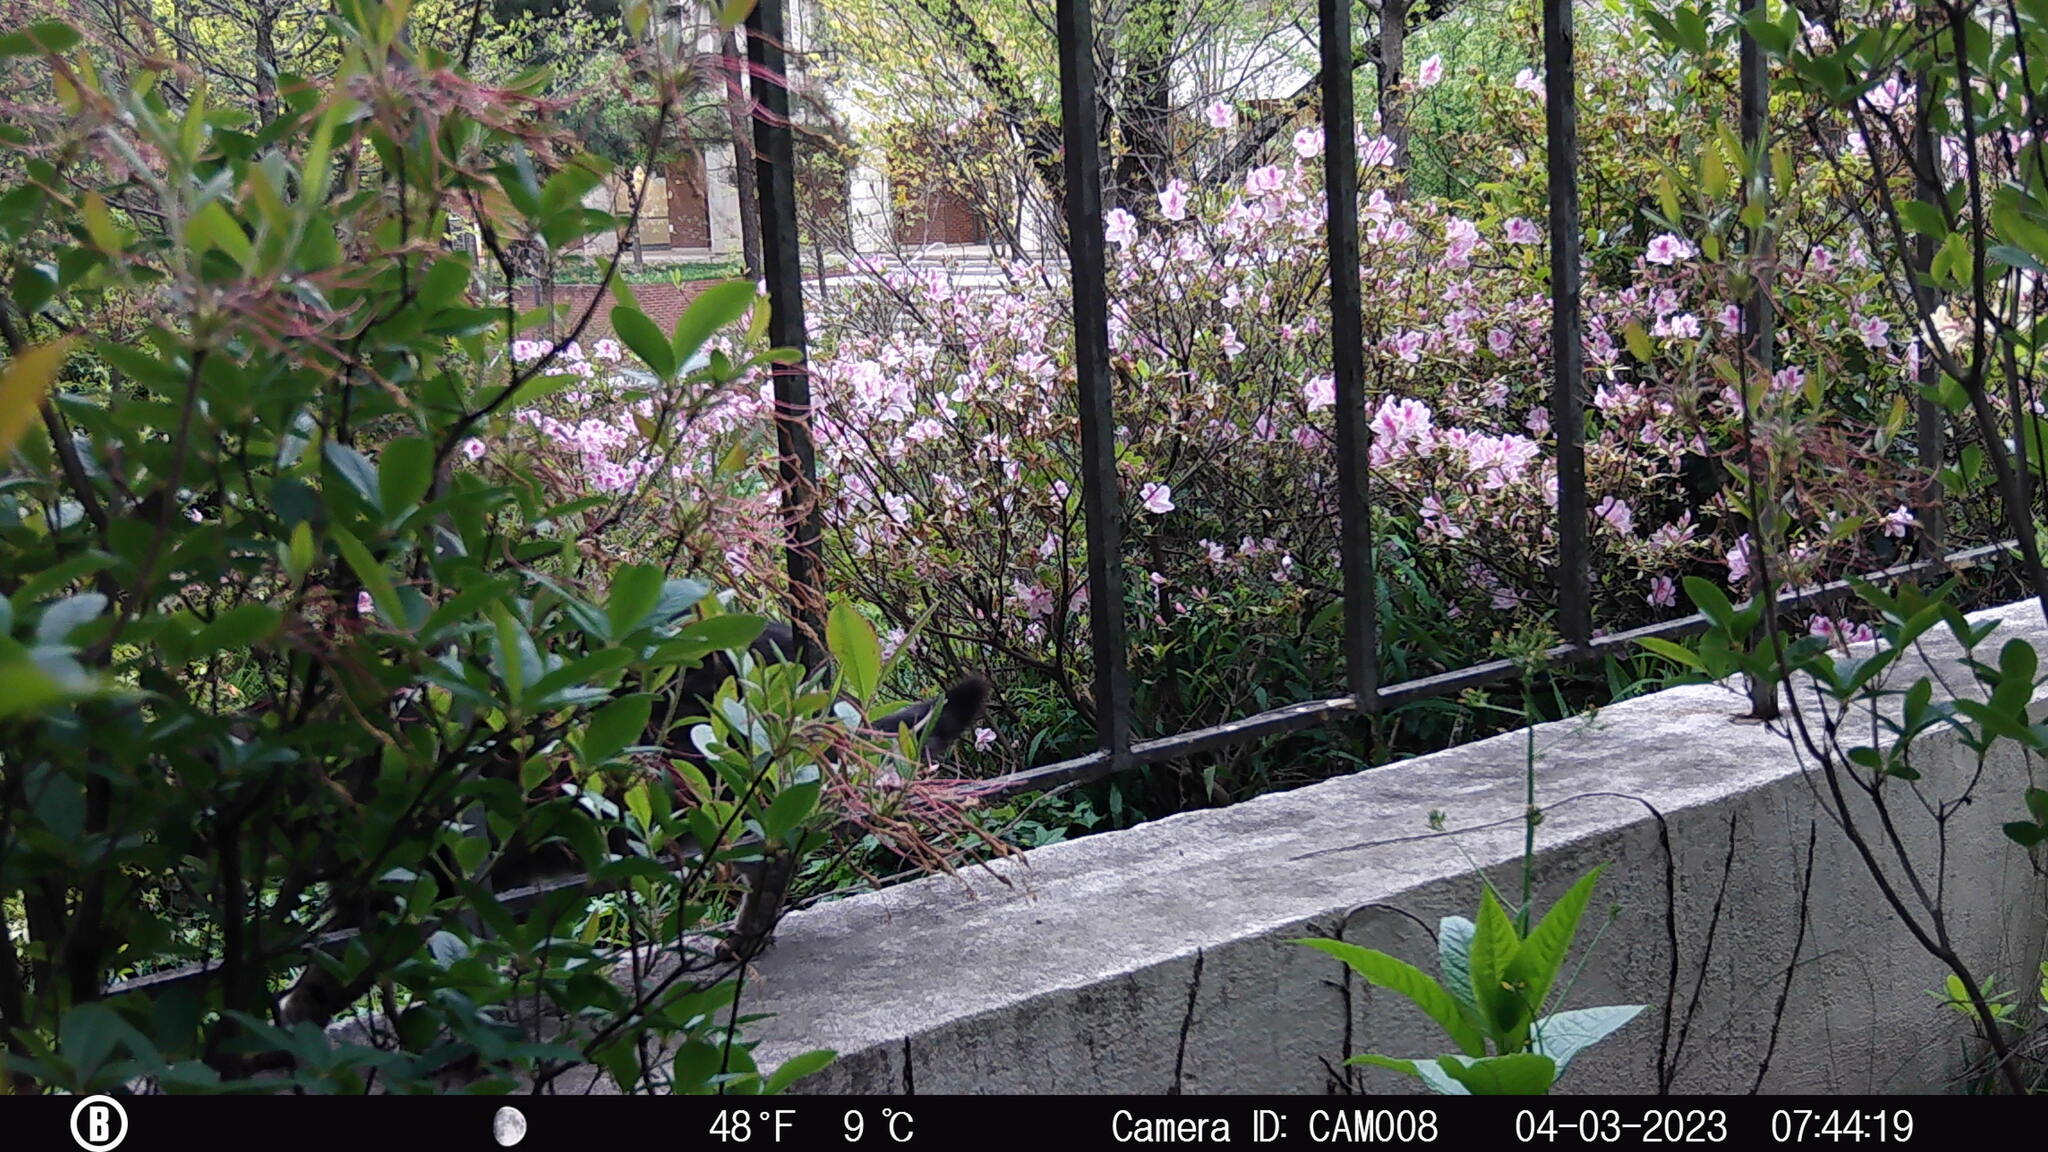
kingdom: Animalia
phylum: Chordata
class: Mammalia
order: Carnivora
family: Felidae
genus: Felis
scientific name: Felis catus
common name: Domestic cat
